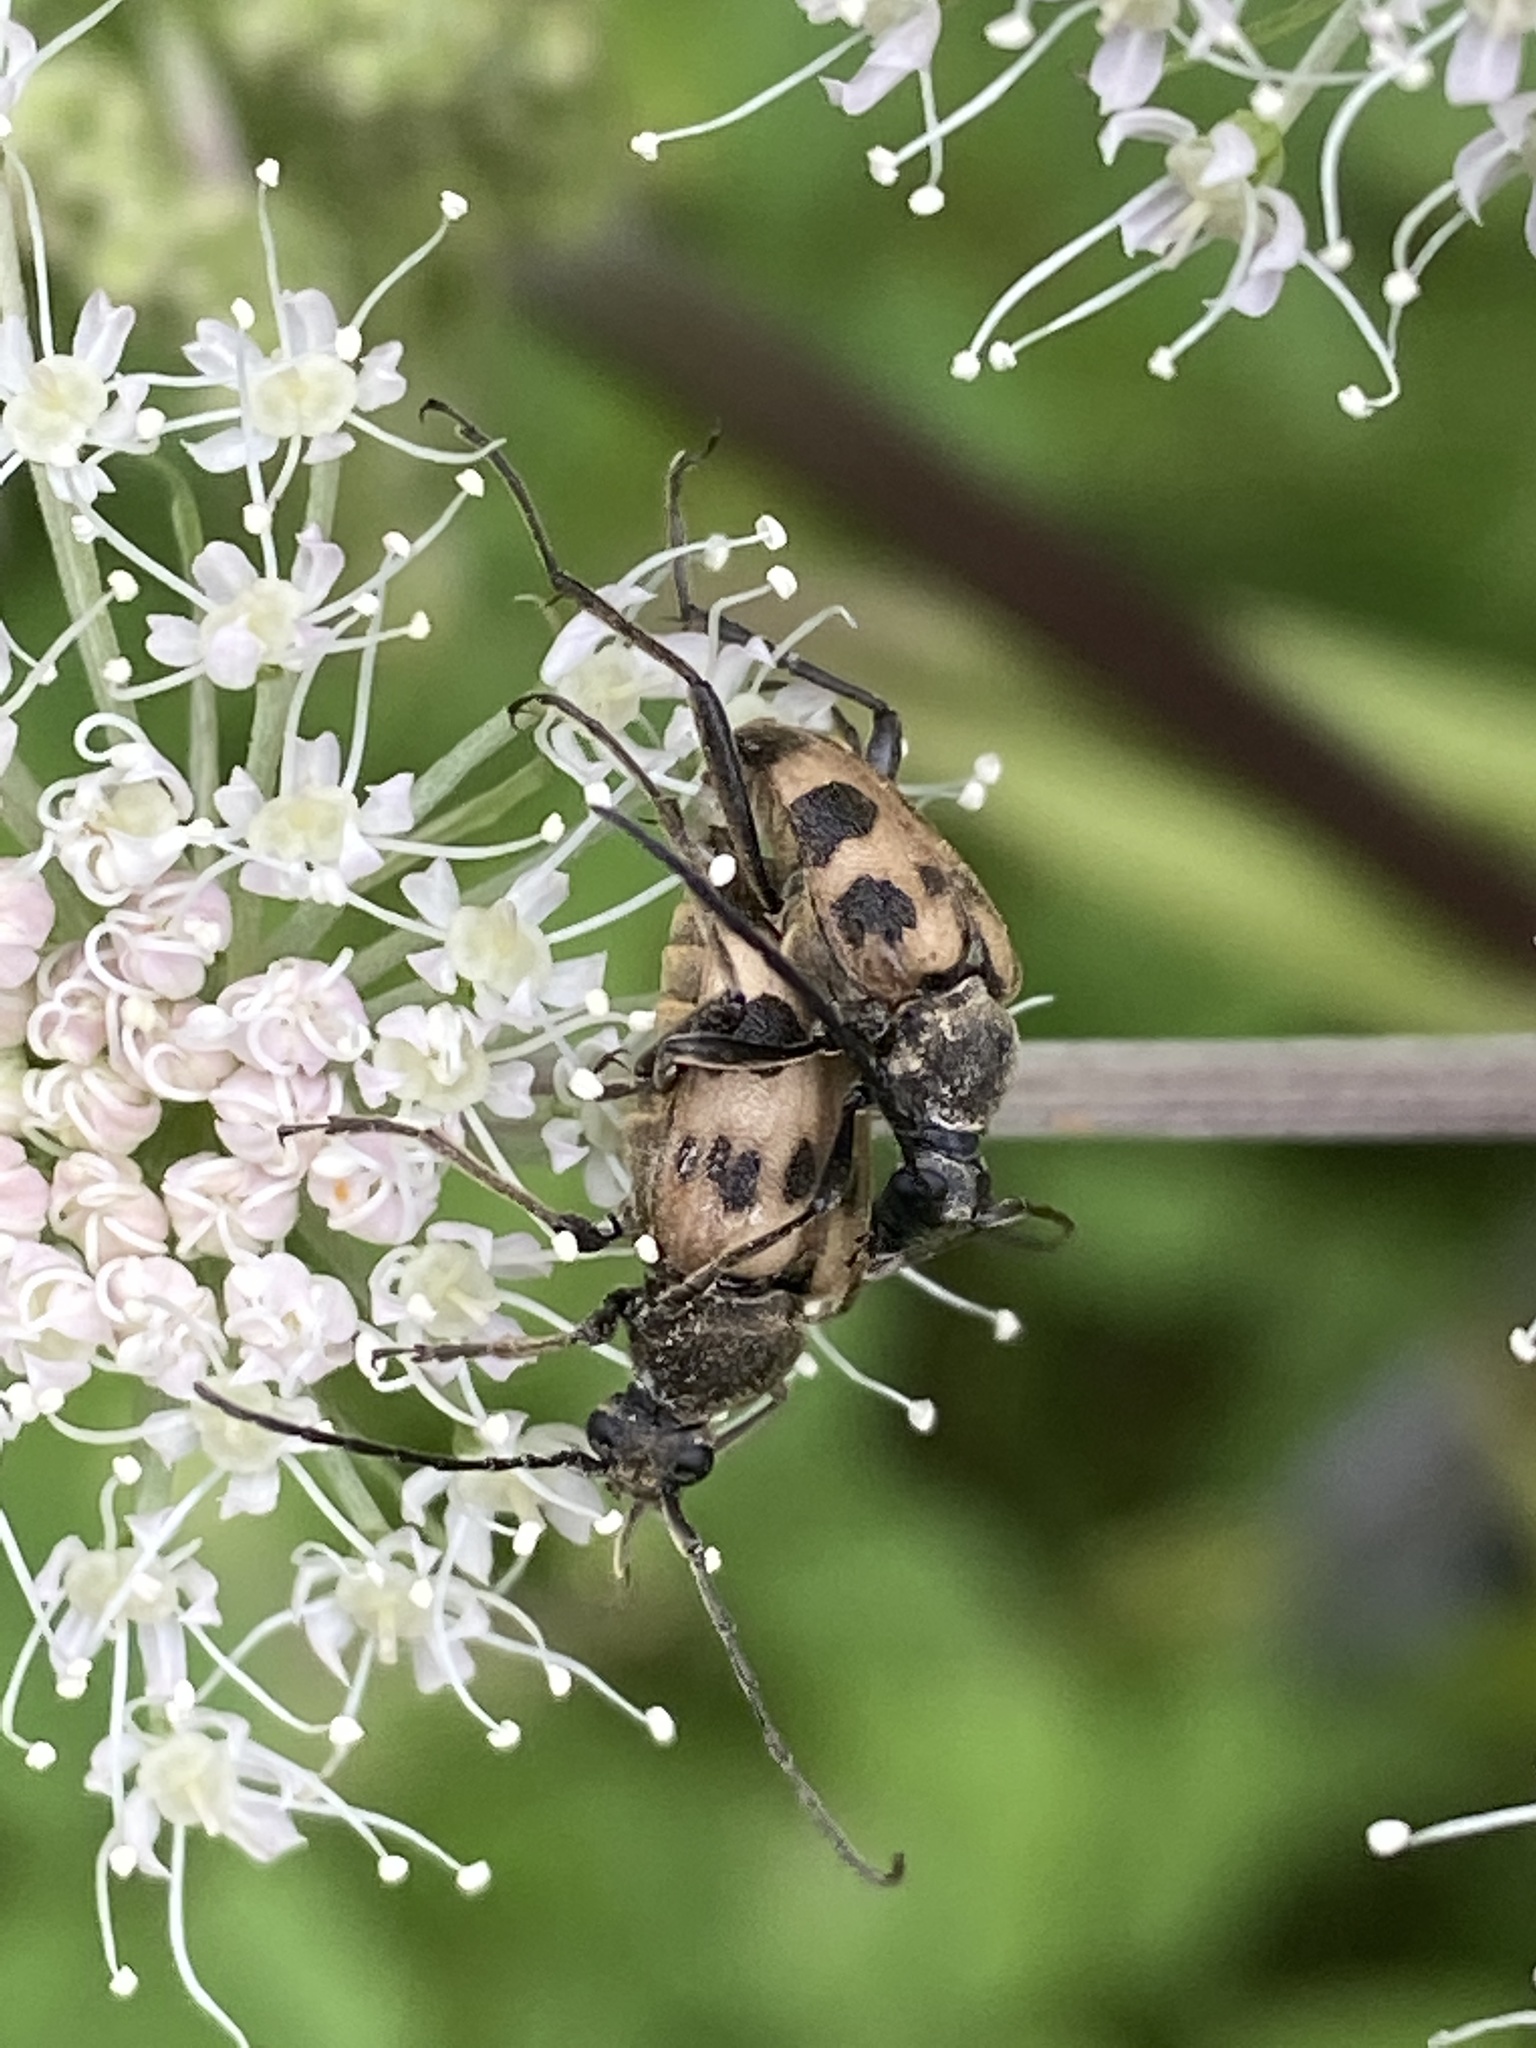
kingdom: Animalia
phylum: Arthropoda
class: Insecta
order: Coleoptera
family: Cerambycidae
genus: Pachytodes
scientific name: Pachytodes cerambyciformis
